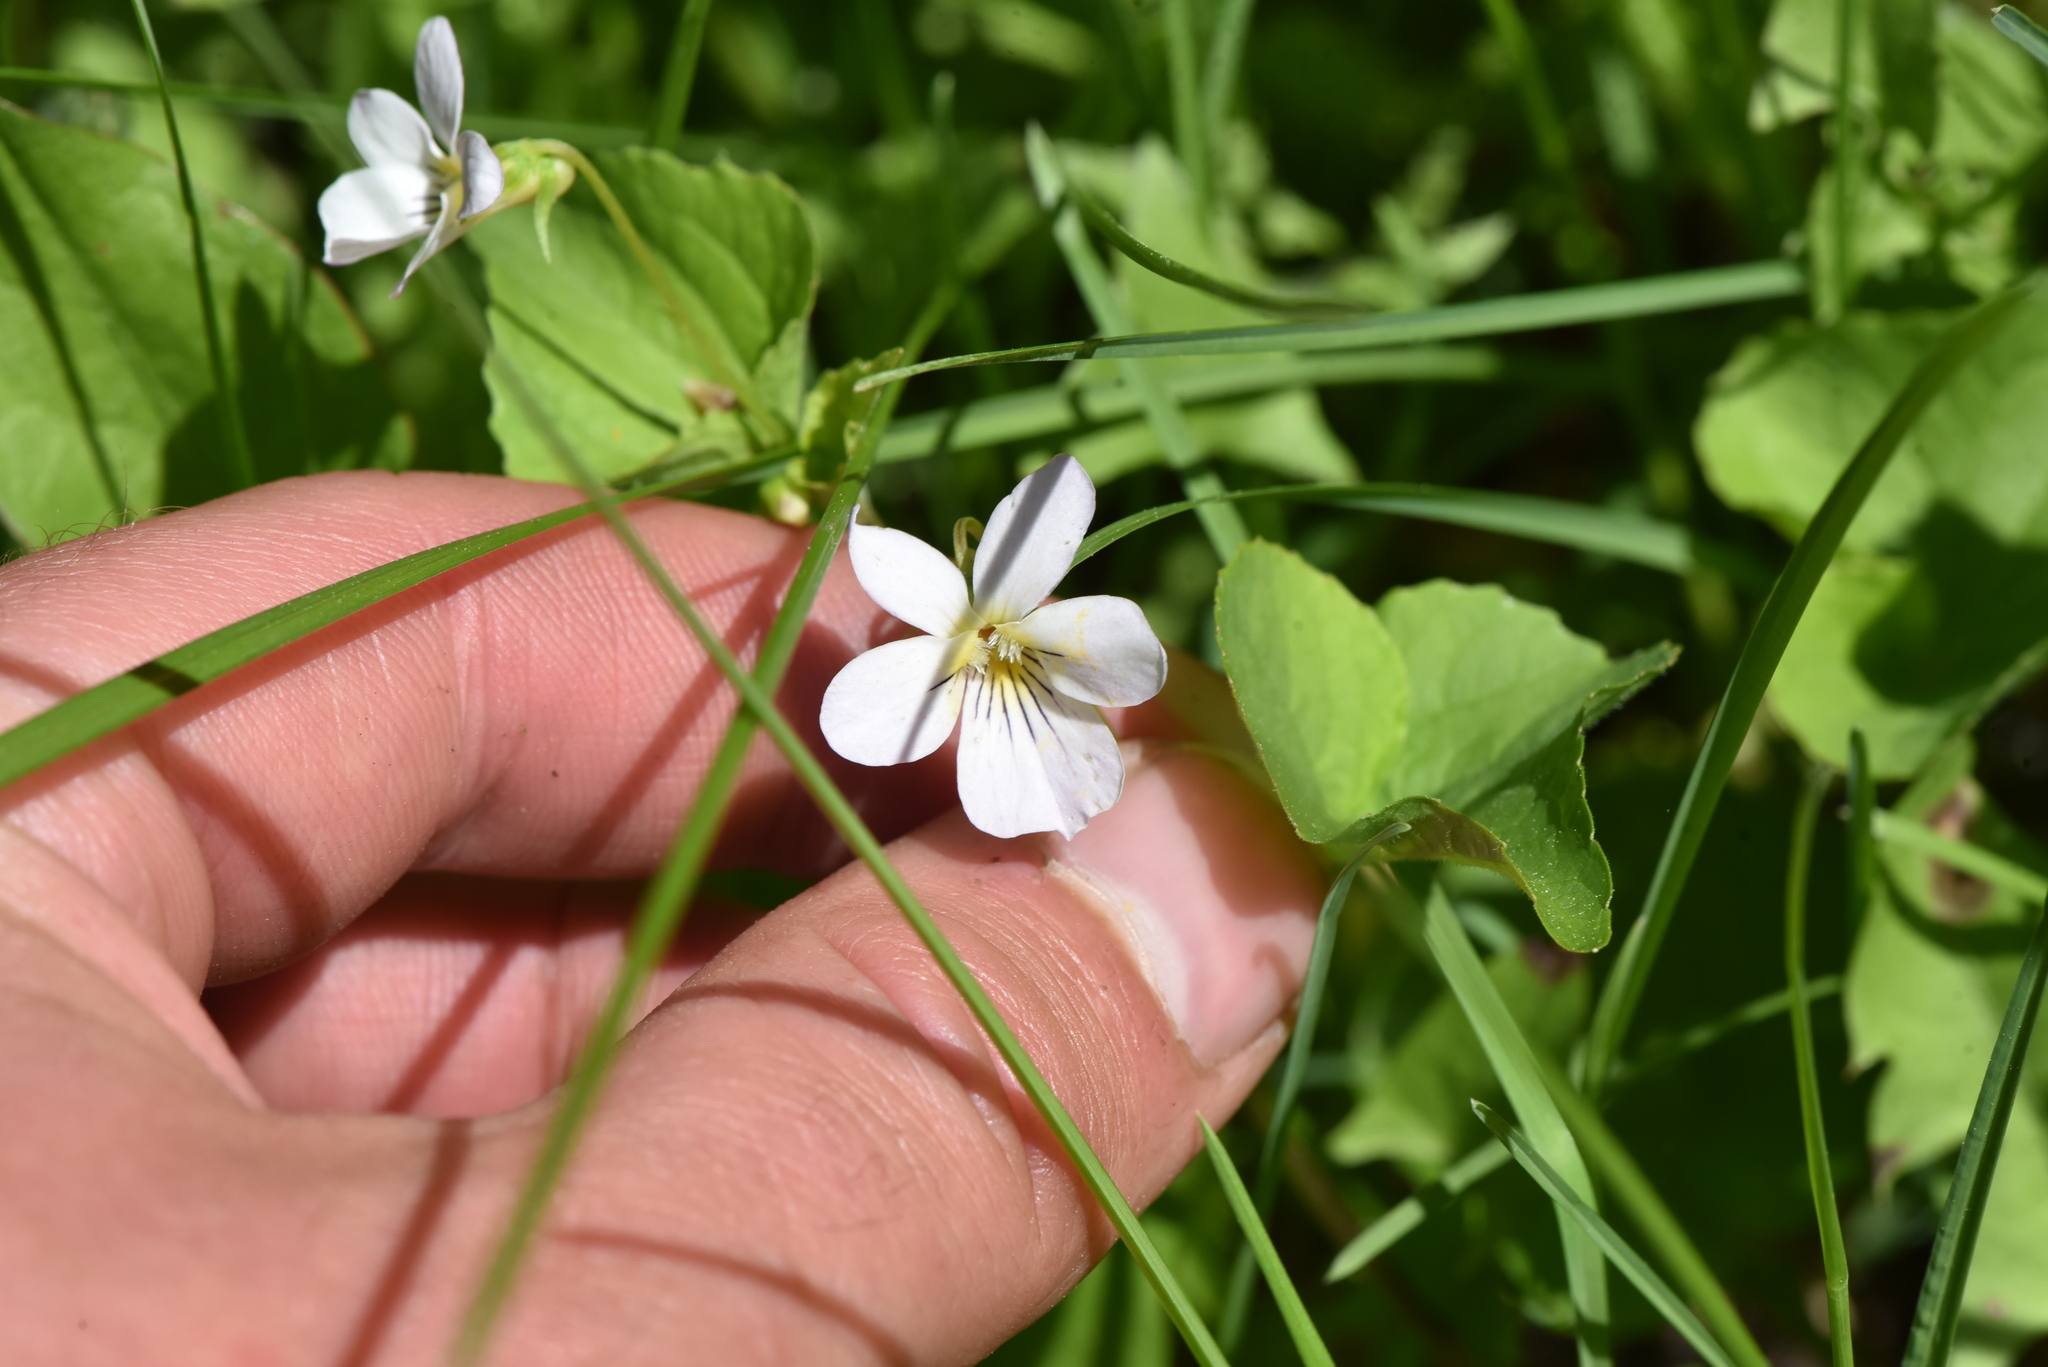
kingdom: Plantae
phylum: Tracheophyta
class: Magnoliopsida
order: Malpighiales
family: Violaceae
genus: Viola
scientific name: Viola canadensis
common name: Canada violet
